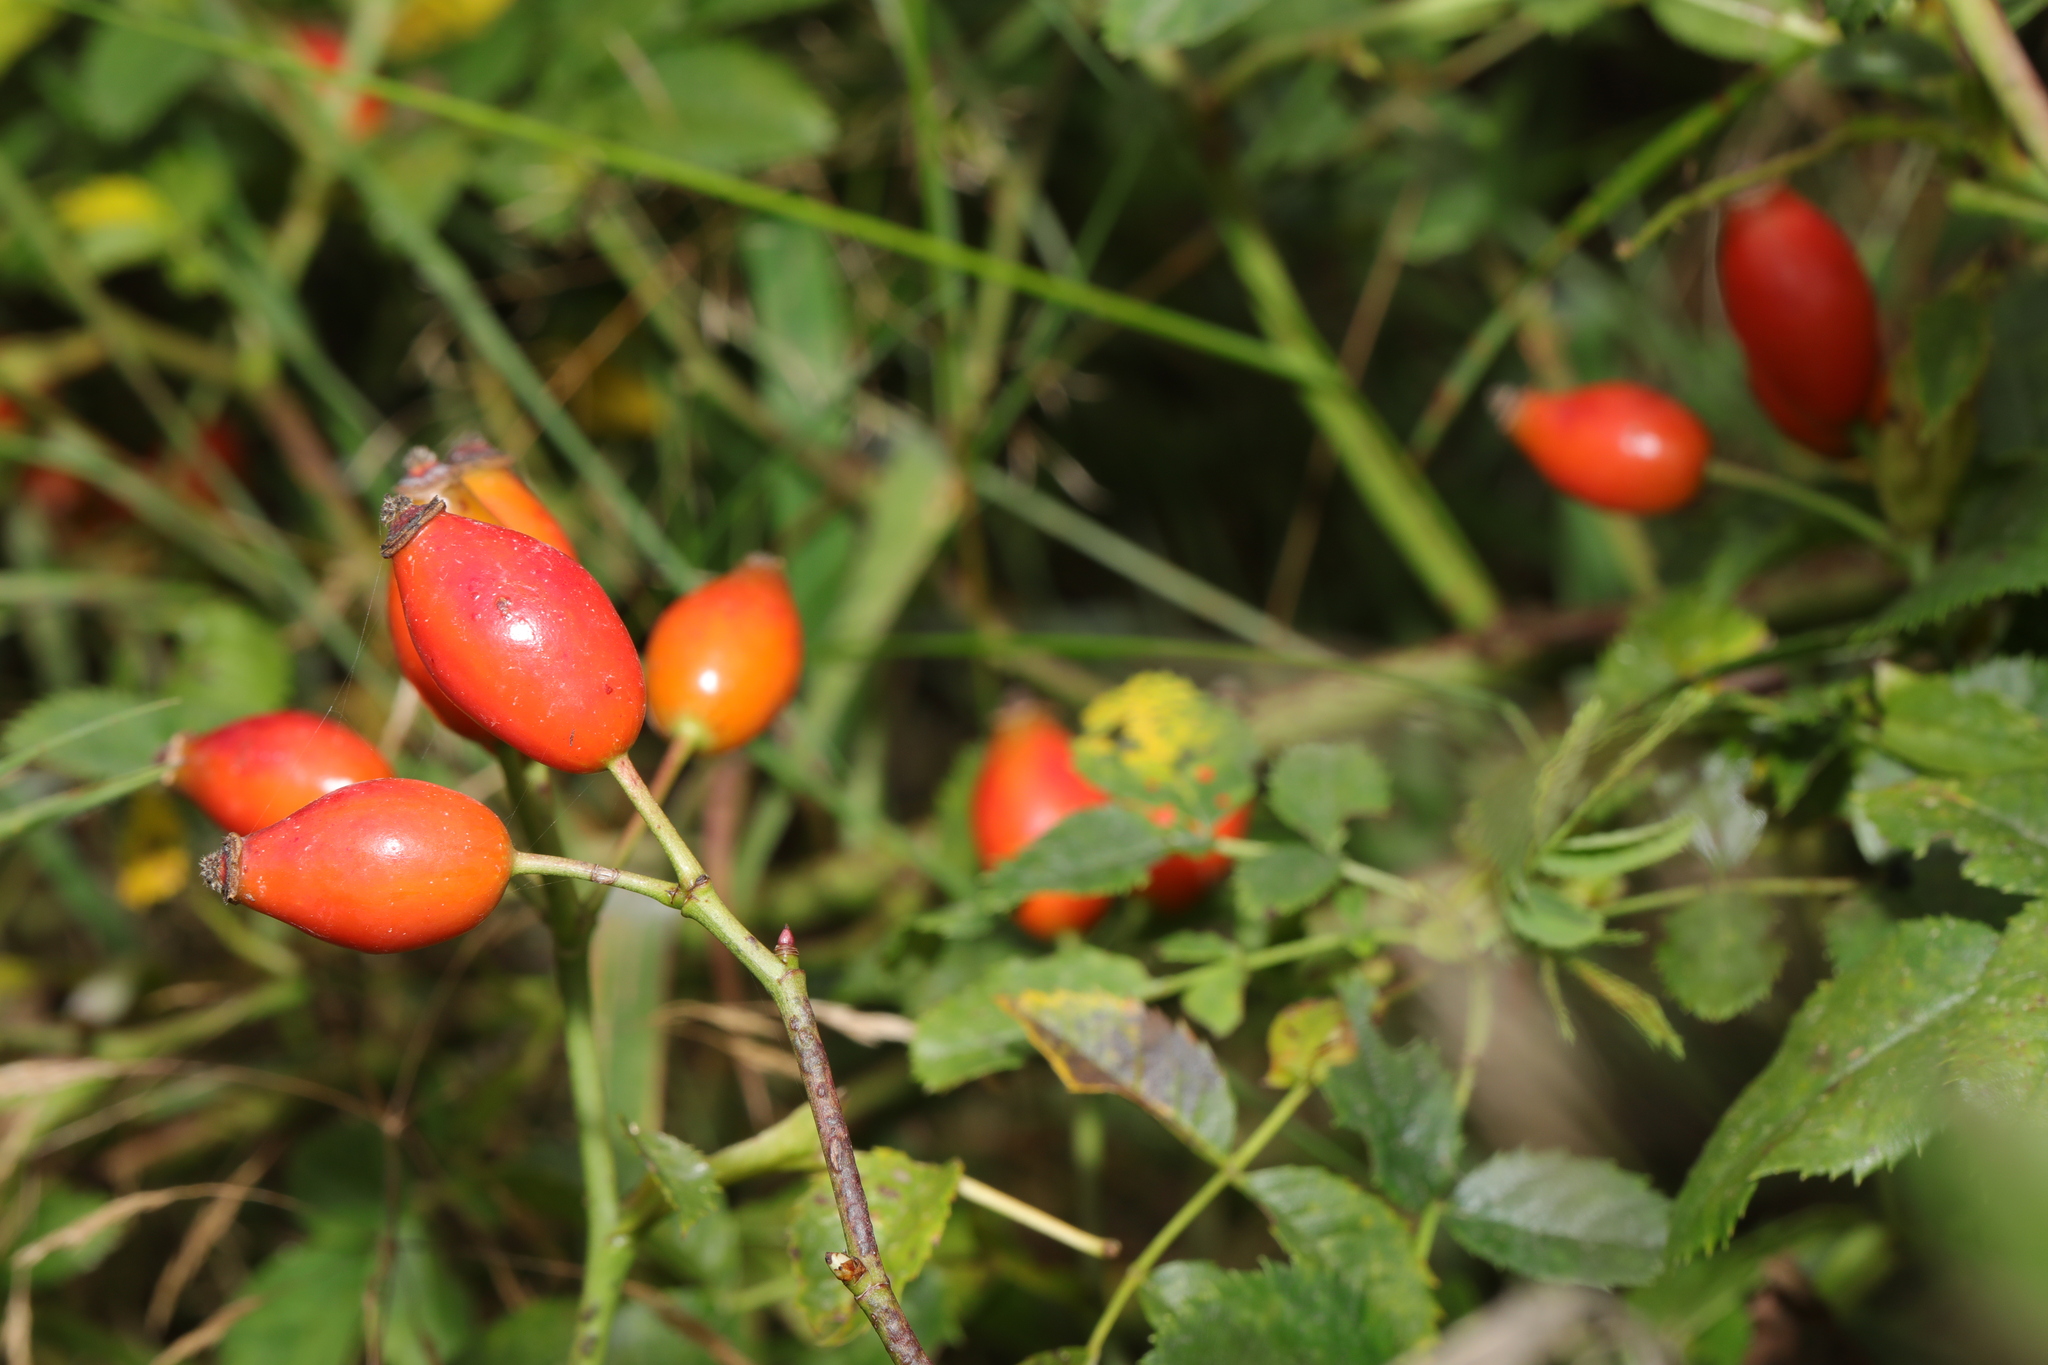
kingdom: Plantae
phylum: Tracheophyta
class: Magnoliopsida
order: Rosales
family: Rosaceae
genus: Rosa
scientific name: Rosa canina
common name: Dog rose
